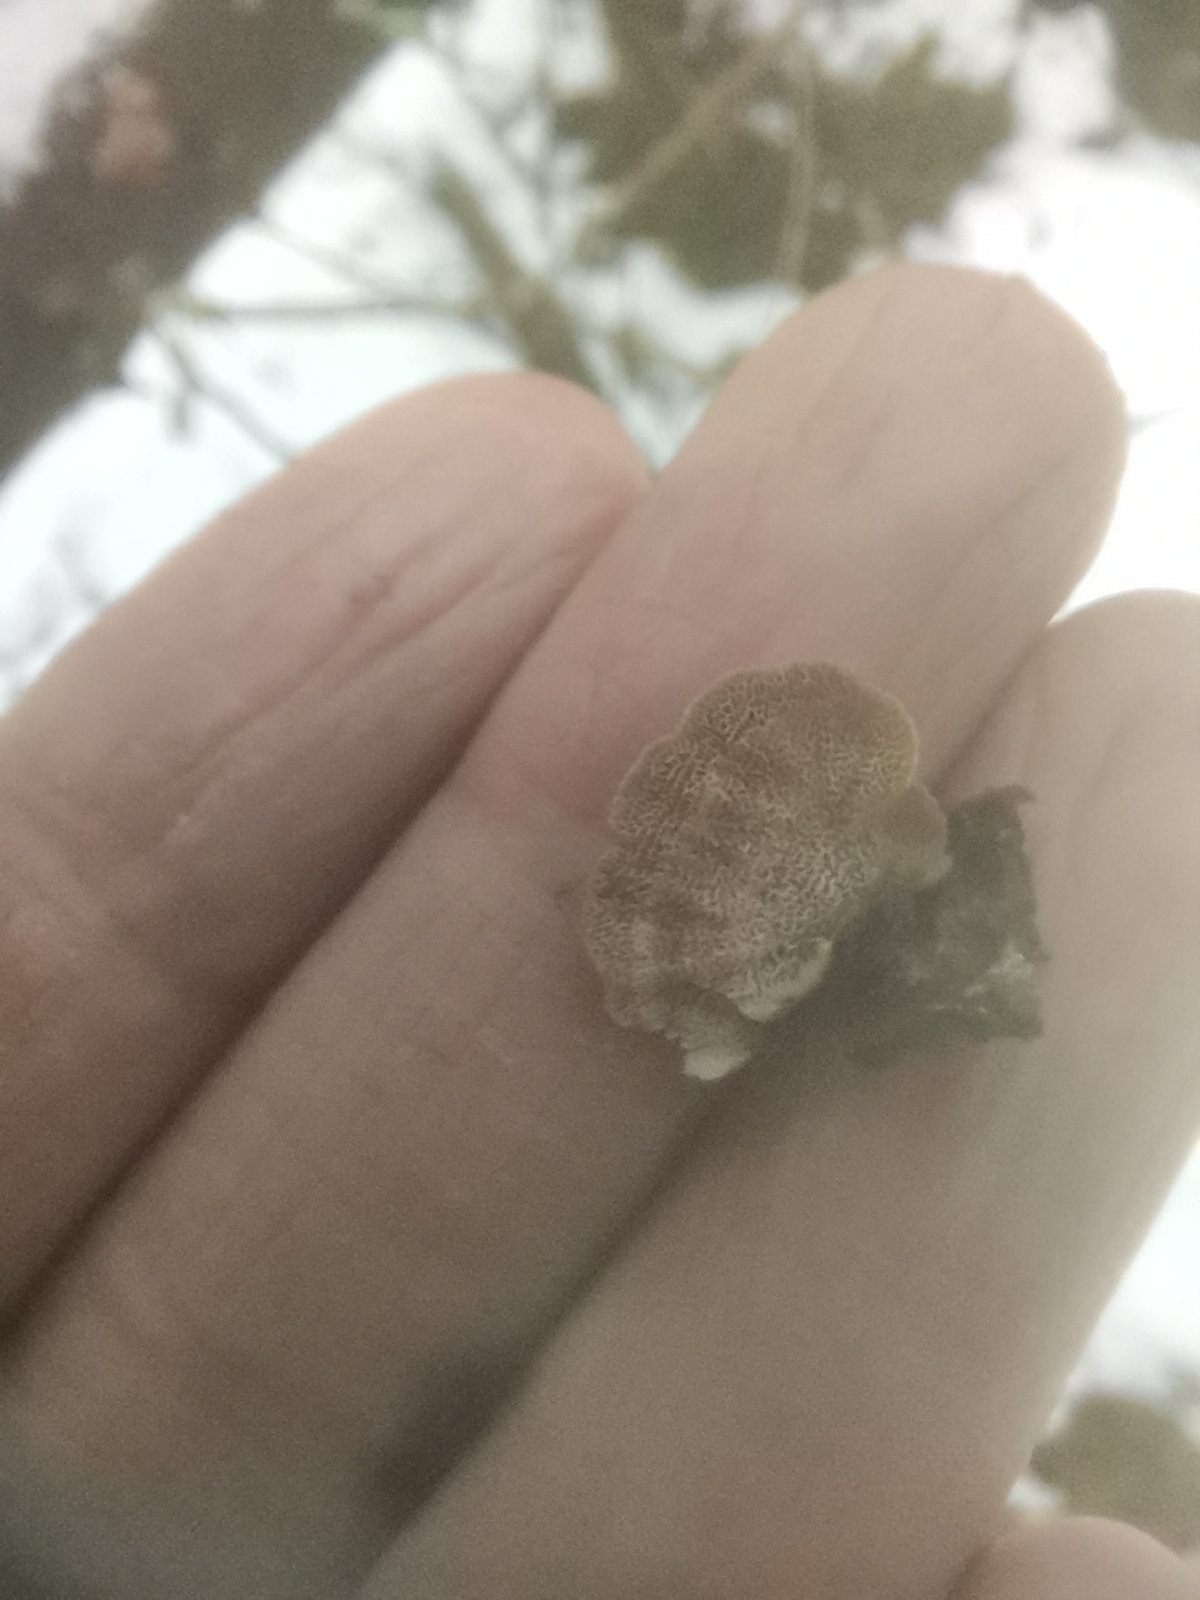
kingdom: Fungi
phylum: Basidiomycota
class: Agaricomycetes
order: Hymenochaetales
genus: Trichaptum
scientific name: Trichaptum abietinum
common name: Purplepore bracket
